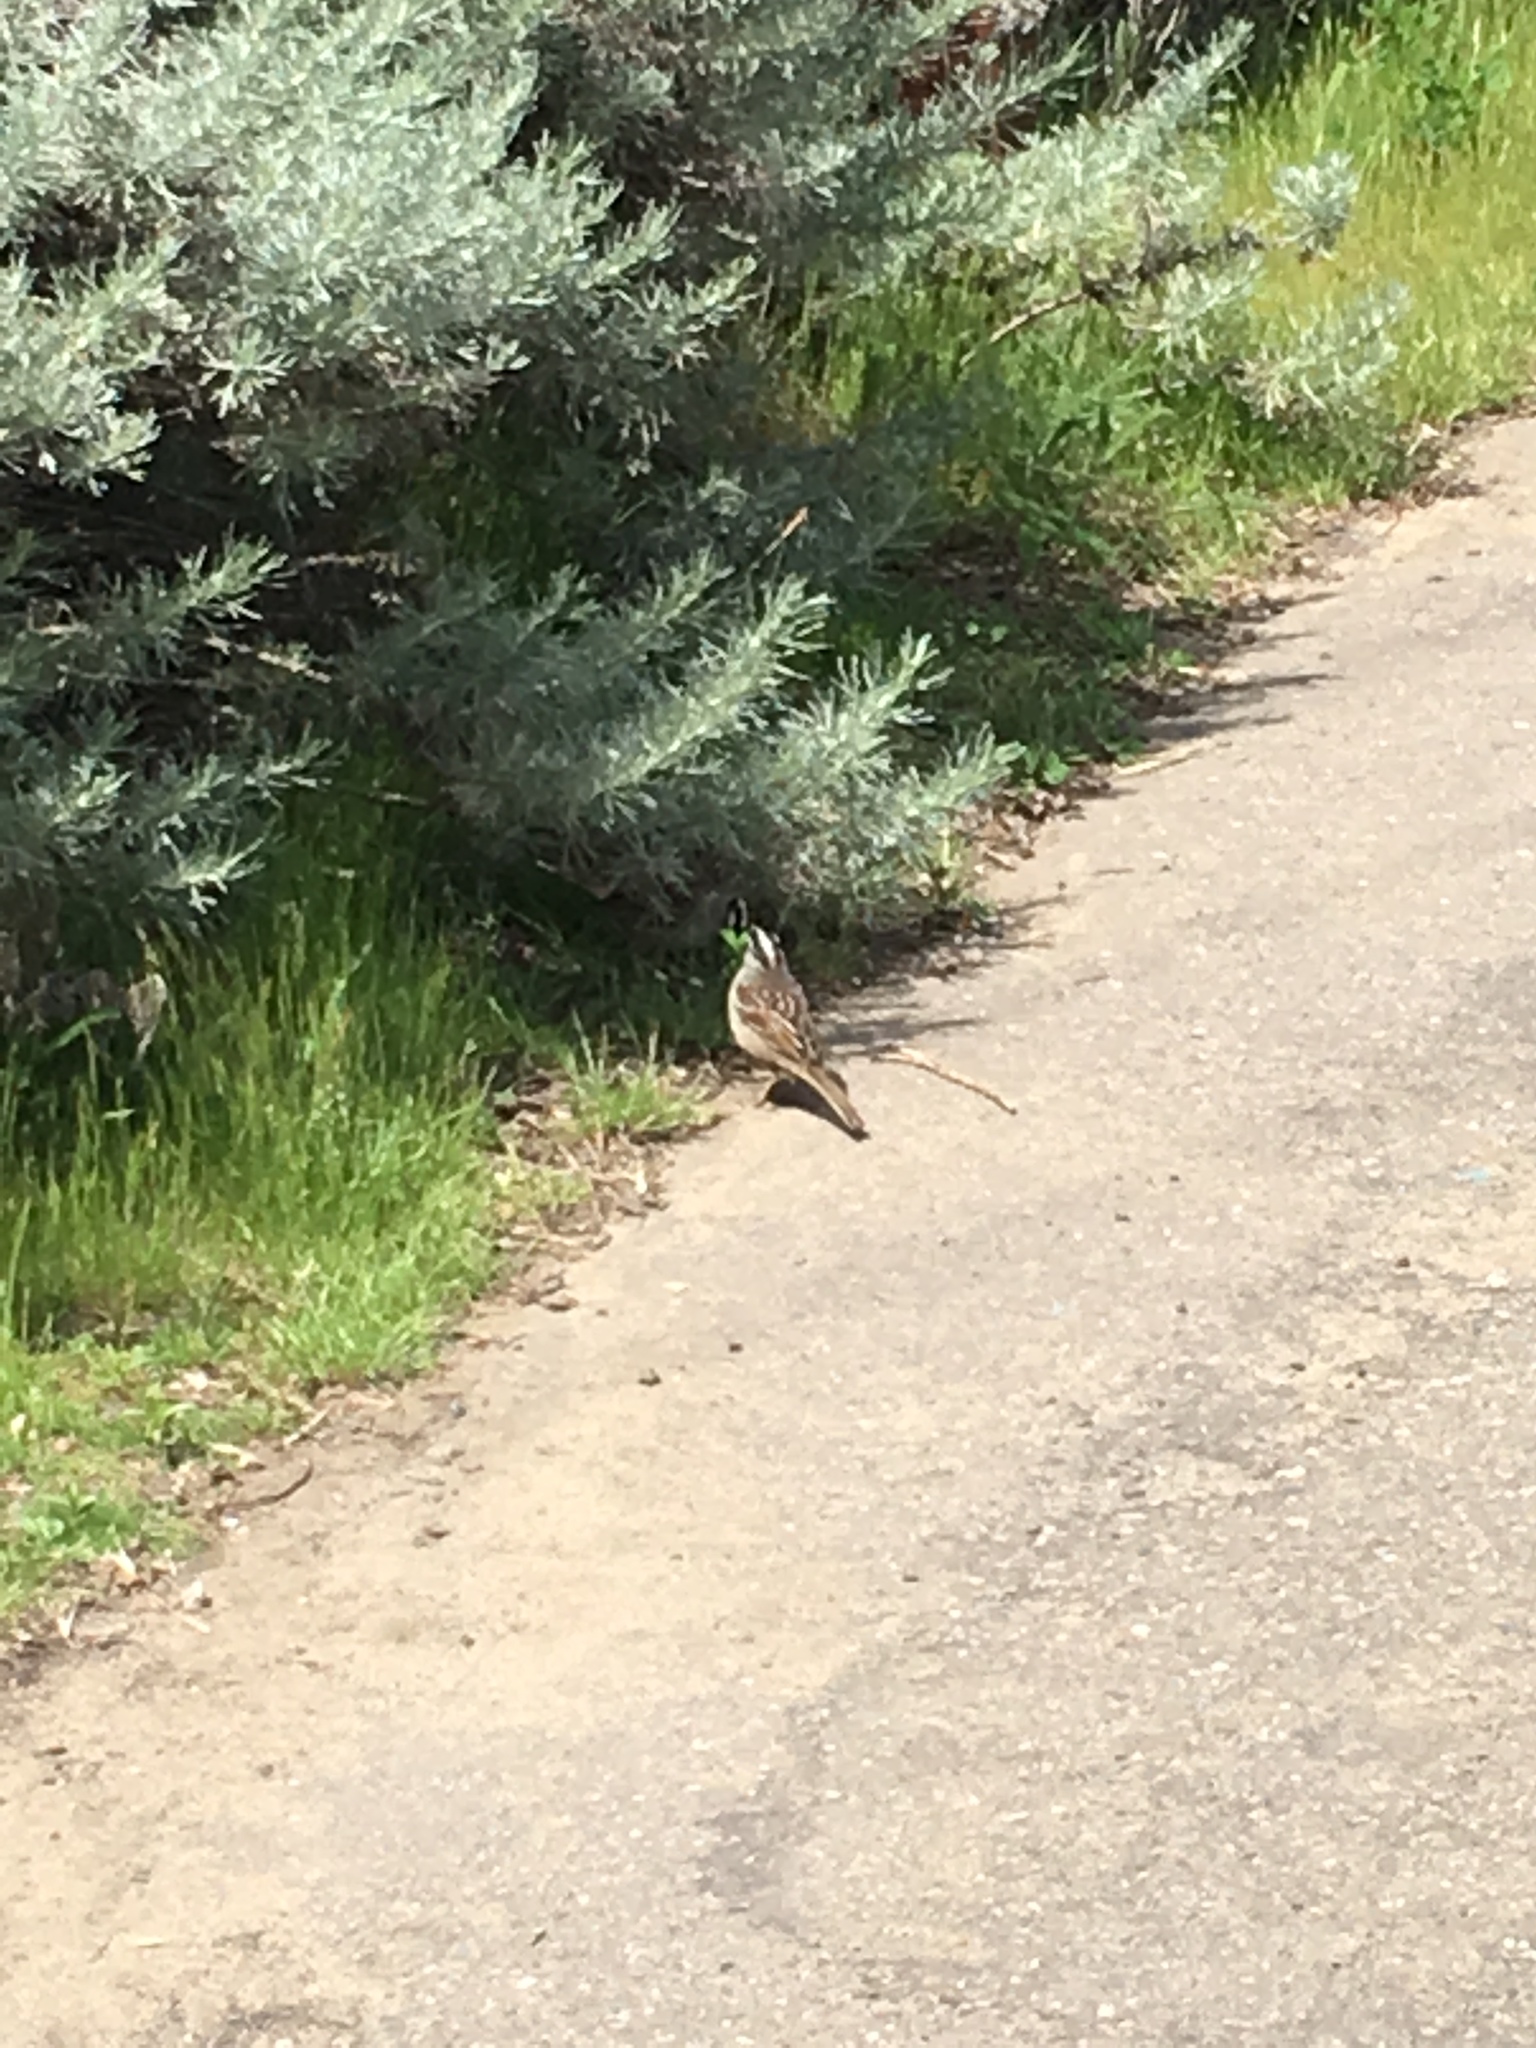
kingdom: Animalia
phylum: Chordata
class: Aves
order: Passeriformes
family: Passerellidae
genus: Zonotrichia
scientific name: Zonotrichia leucophrys
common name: White-crowned sparrow
